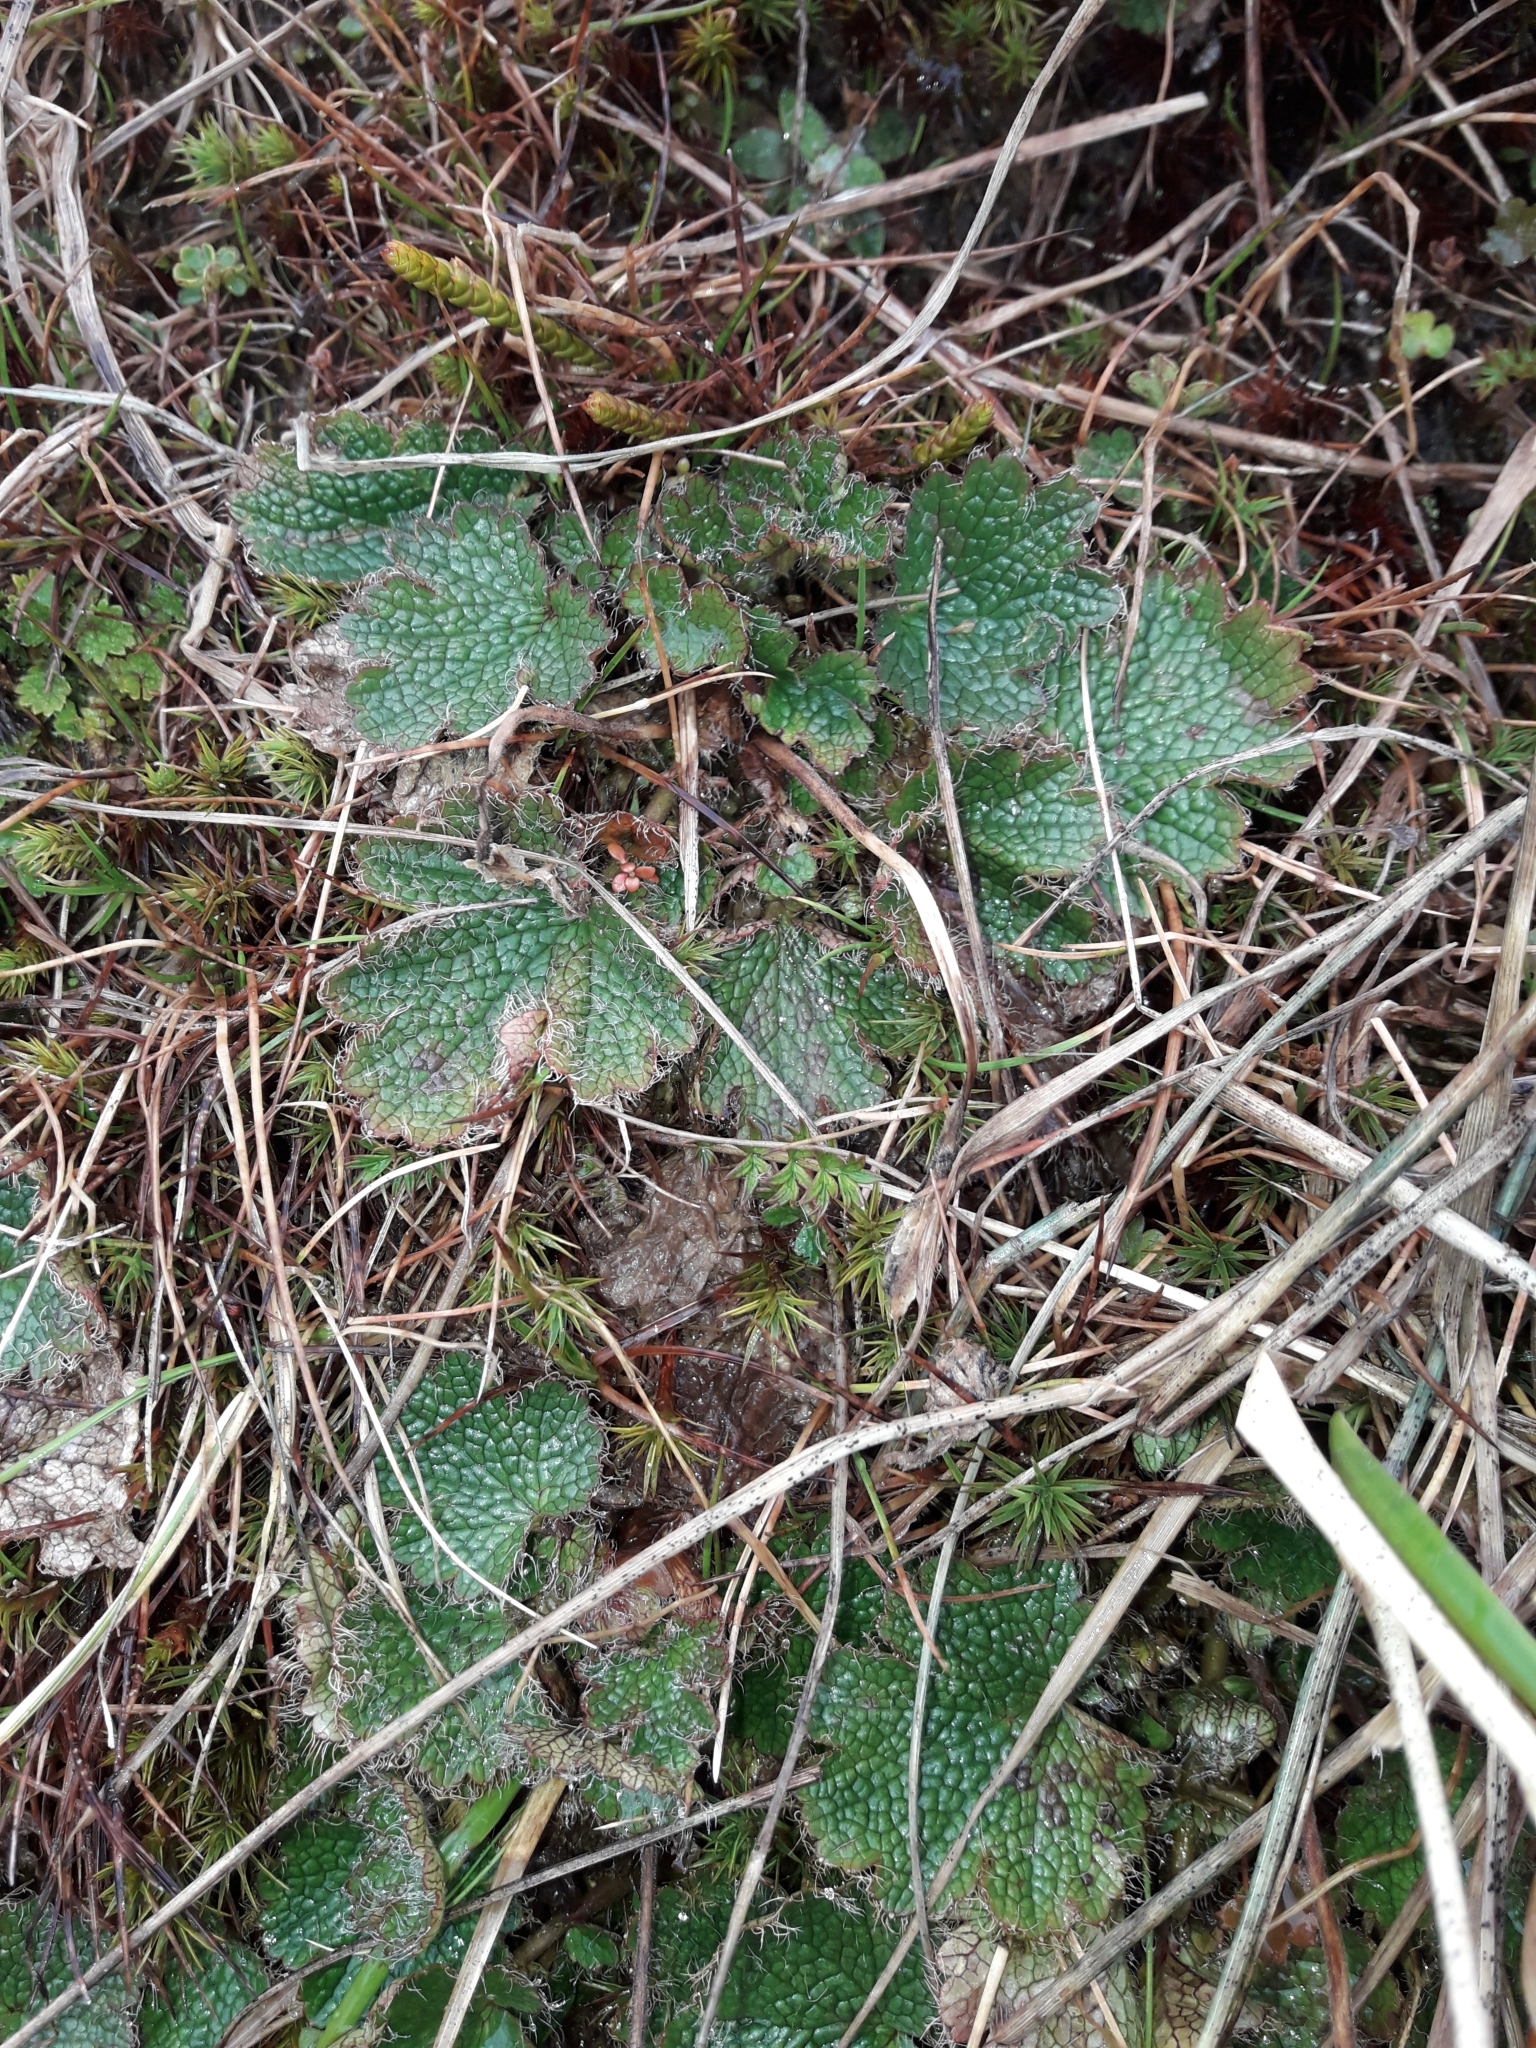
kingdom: Plantae
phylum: Tracheophyta
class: Magnoliopsida
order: Rosales
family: Rosaceae
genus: Geum
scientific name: Geum uniflorum
